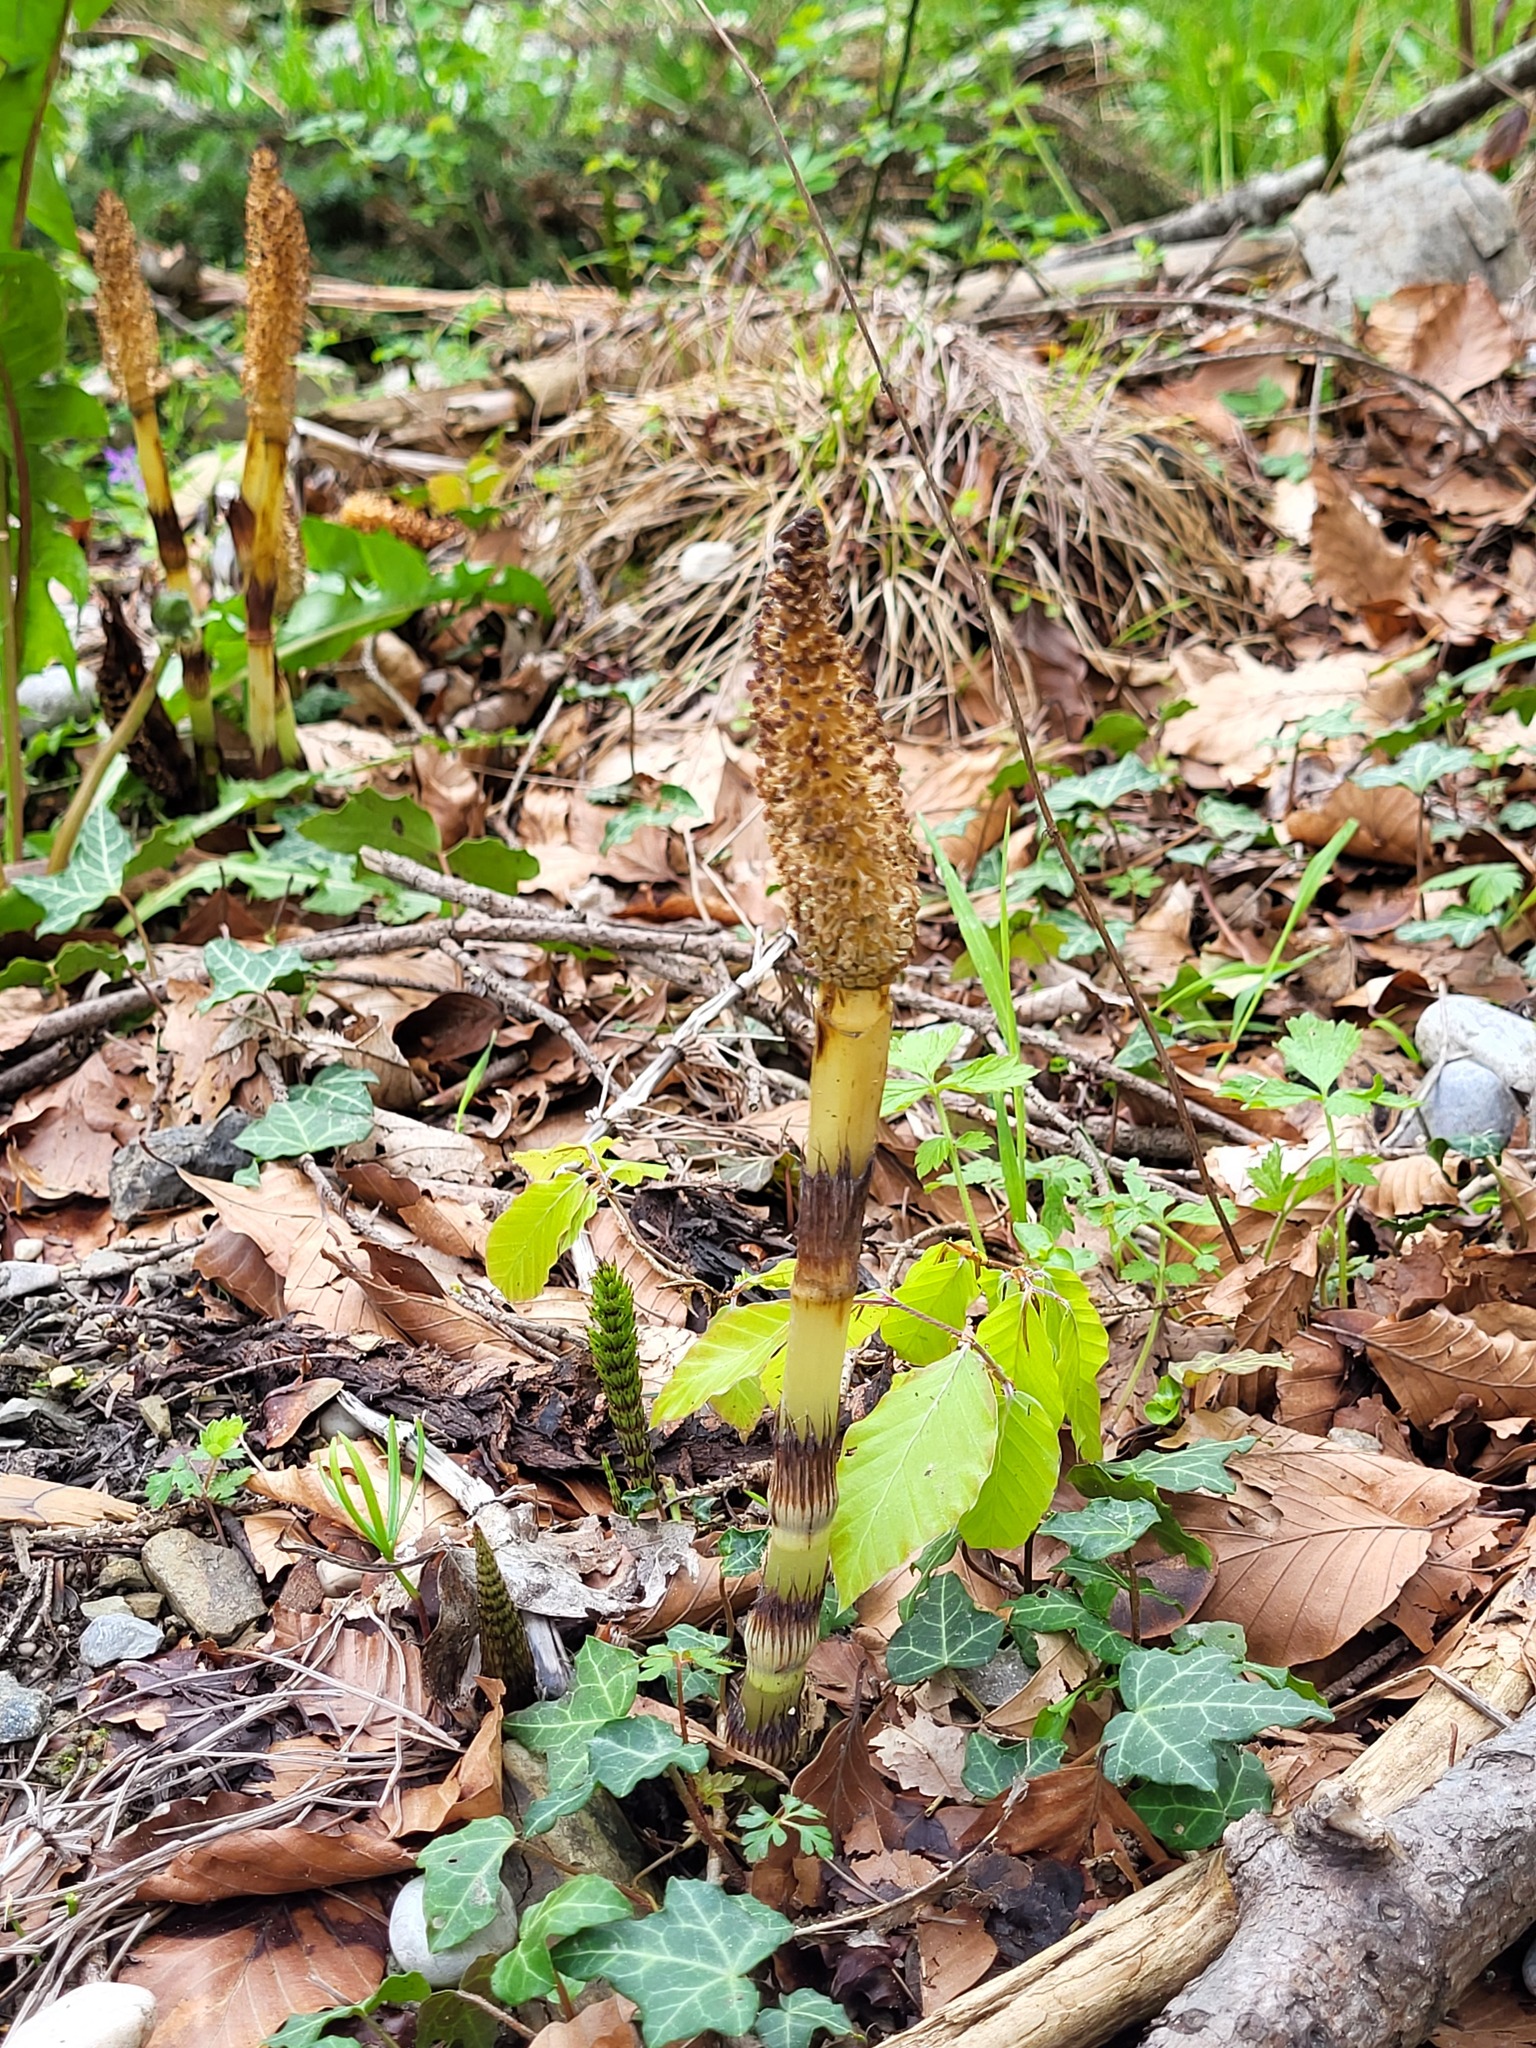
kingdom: Plantae
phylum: Tracheophyta
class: Polypodiopsida
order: Equisetales
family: Equisetaceae
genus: Equisetum
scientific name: Equisetum telmateia
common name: Great horsetail
